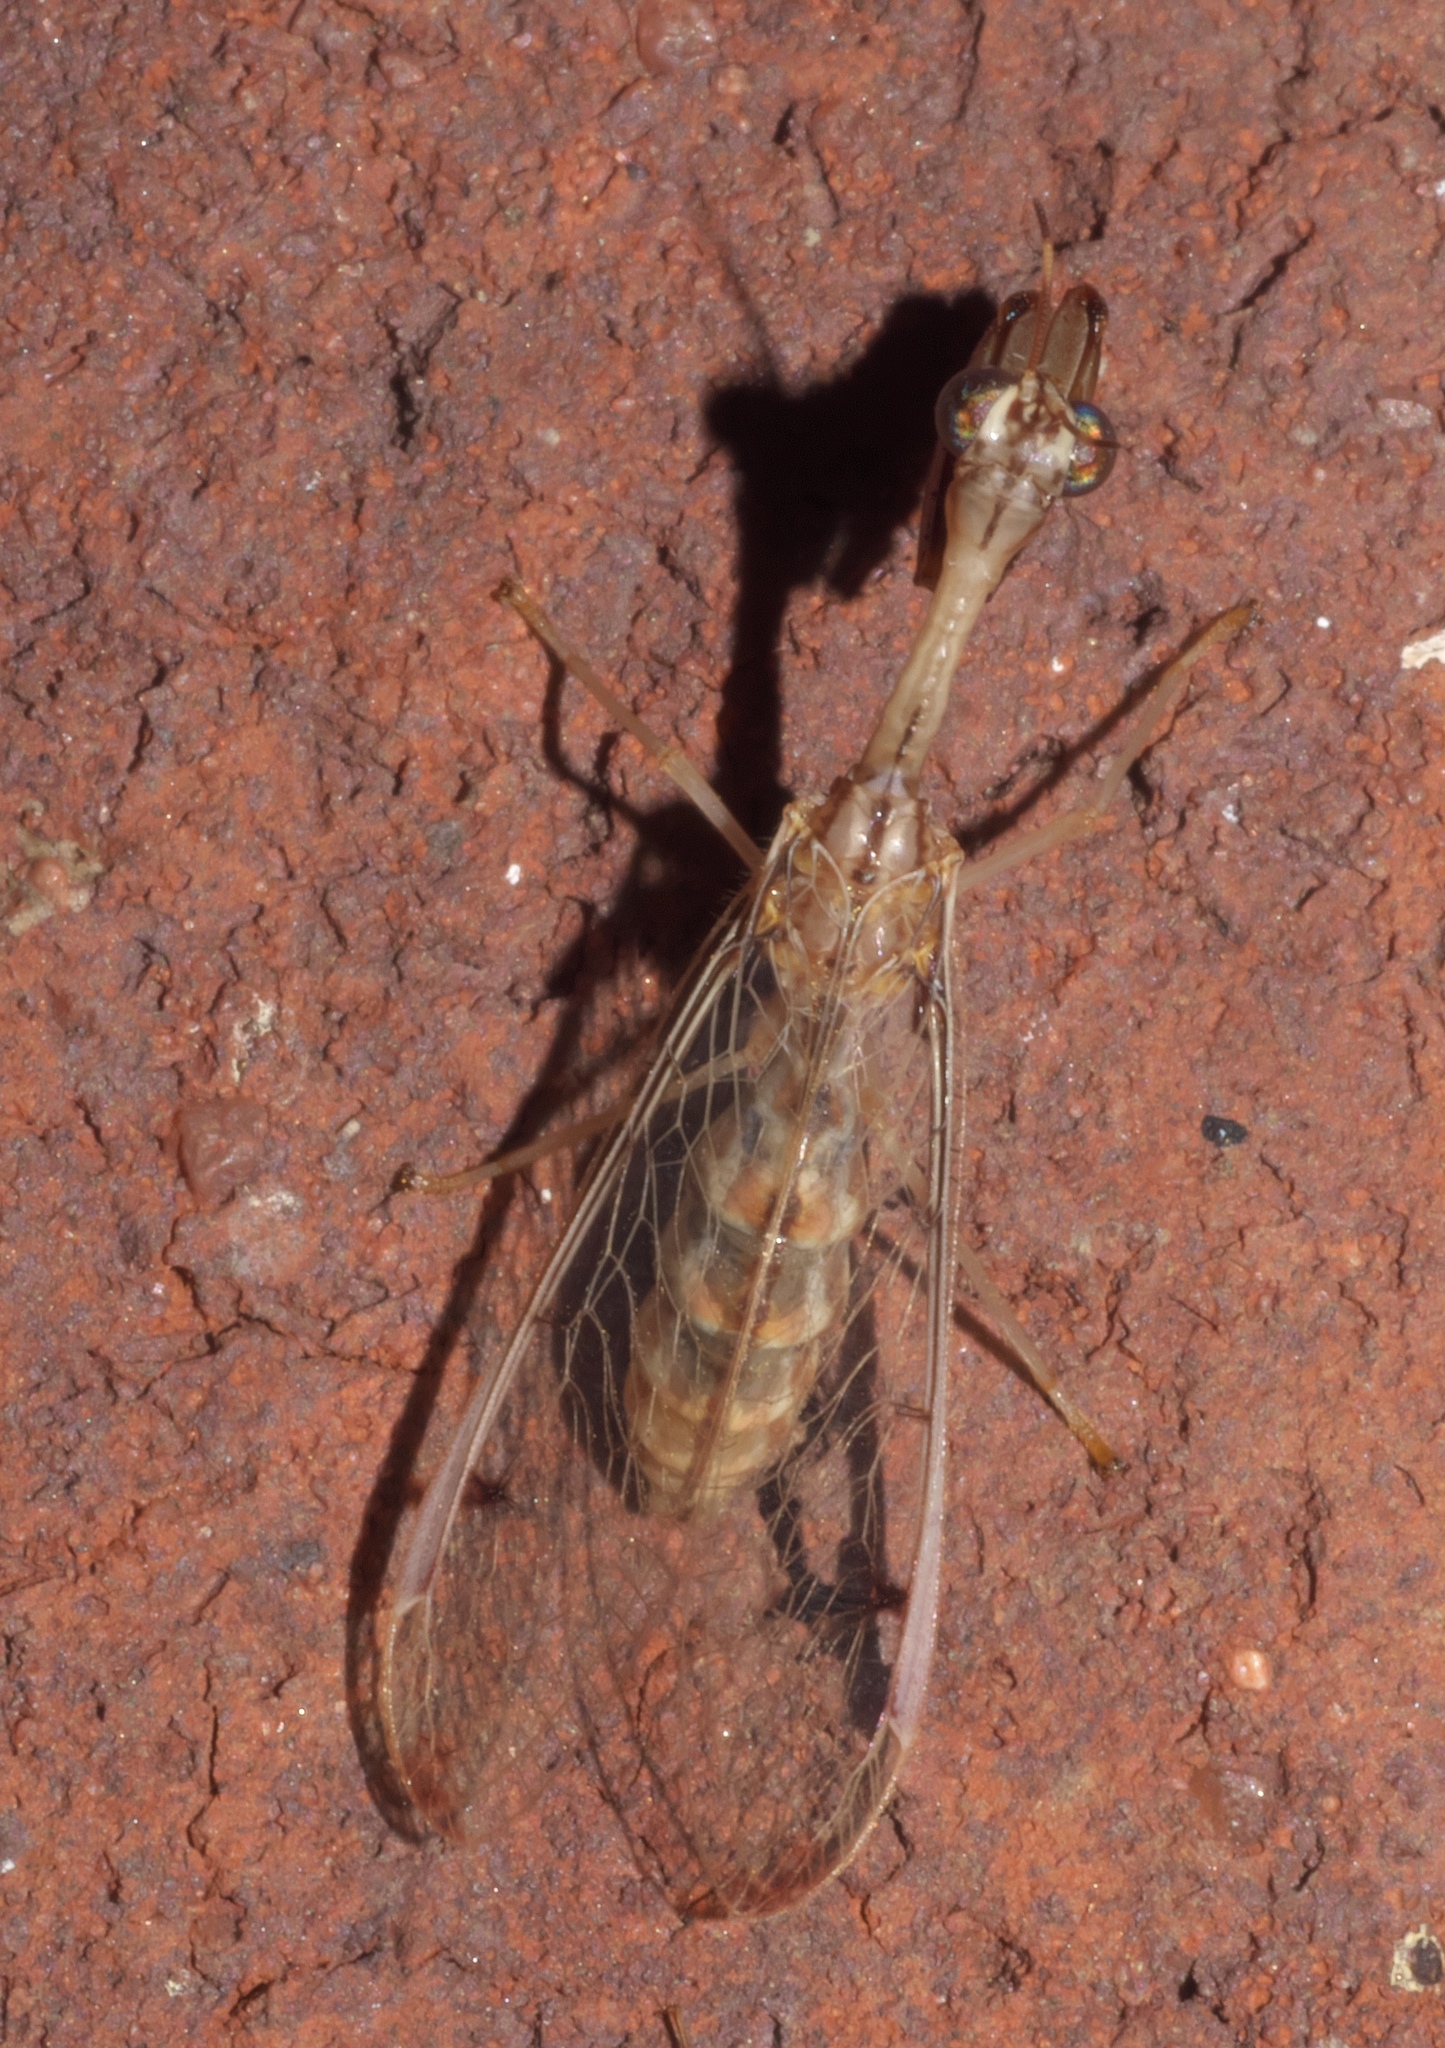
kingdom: Animalia
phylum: Arthropoda
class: Insecta
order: Neuroptera
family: Mantispidae
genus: Dicromantispa
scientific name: Dicromantispa interrupta
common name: Four-spotted mantidfly
